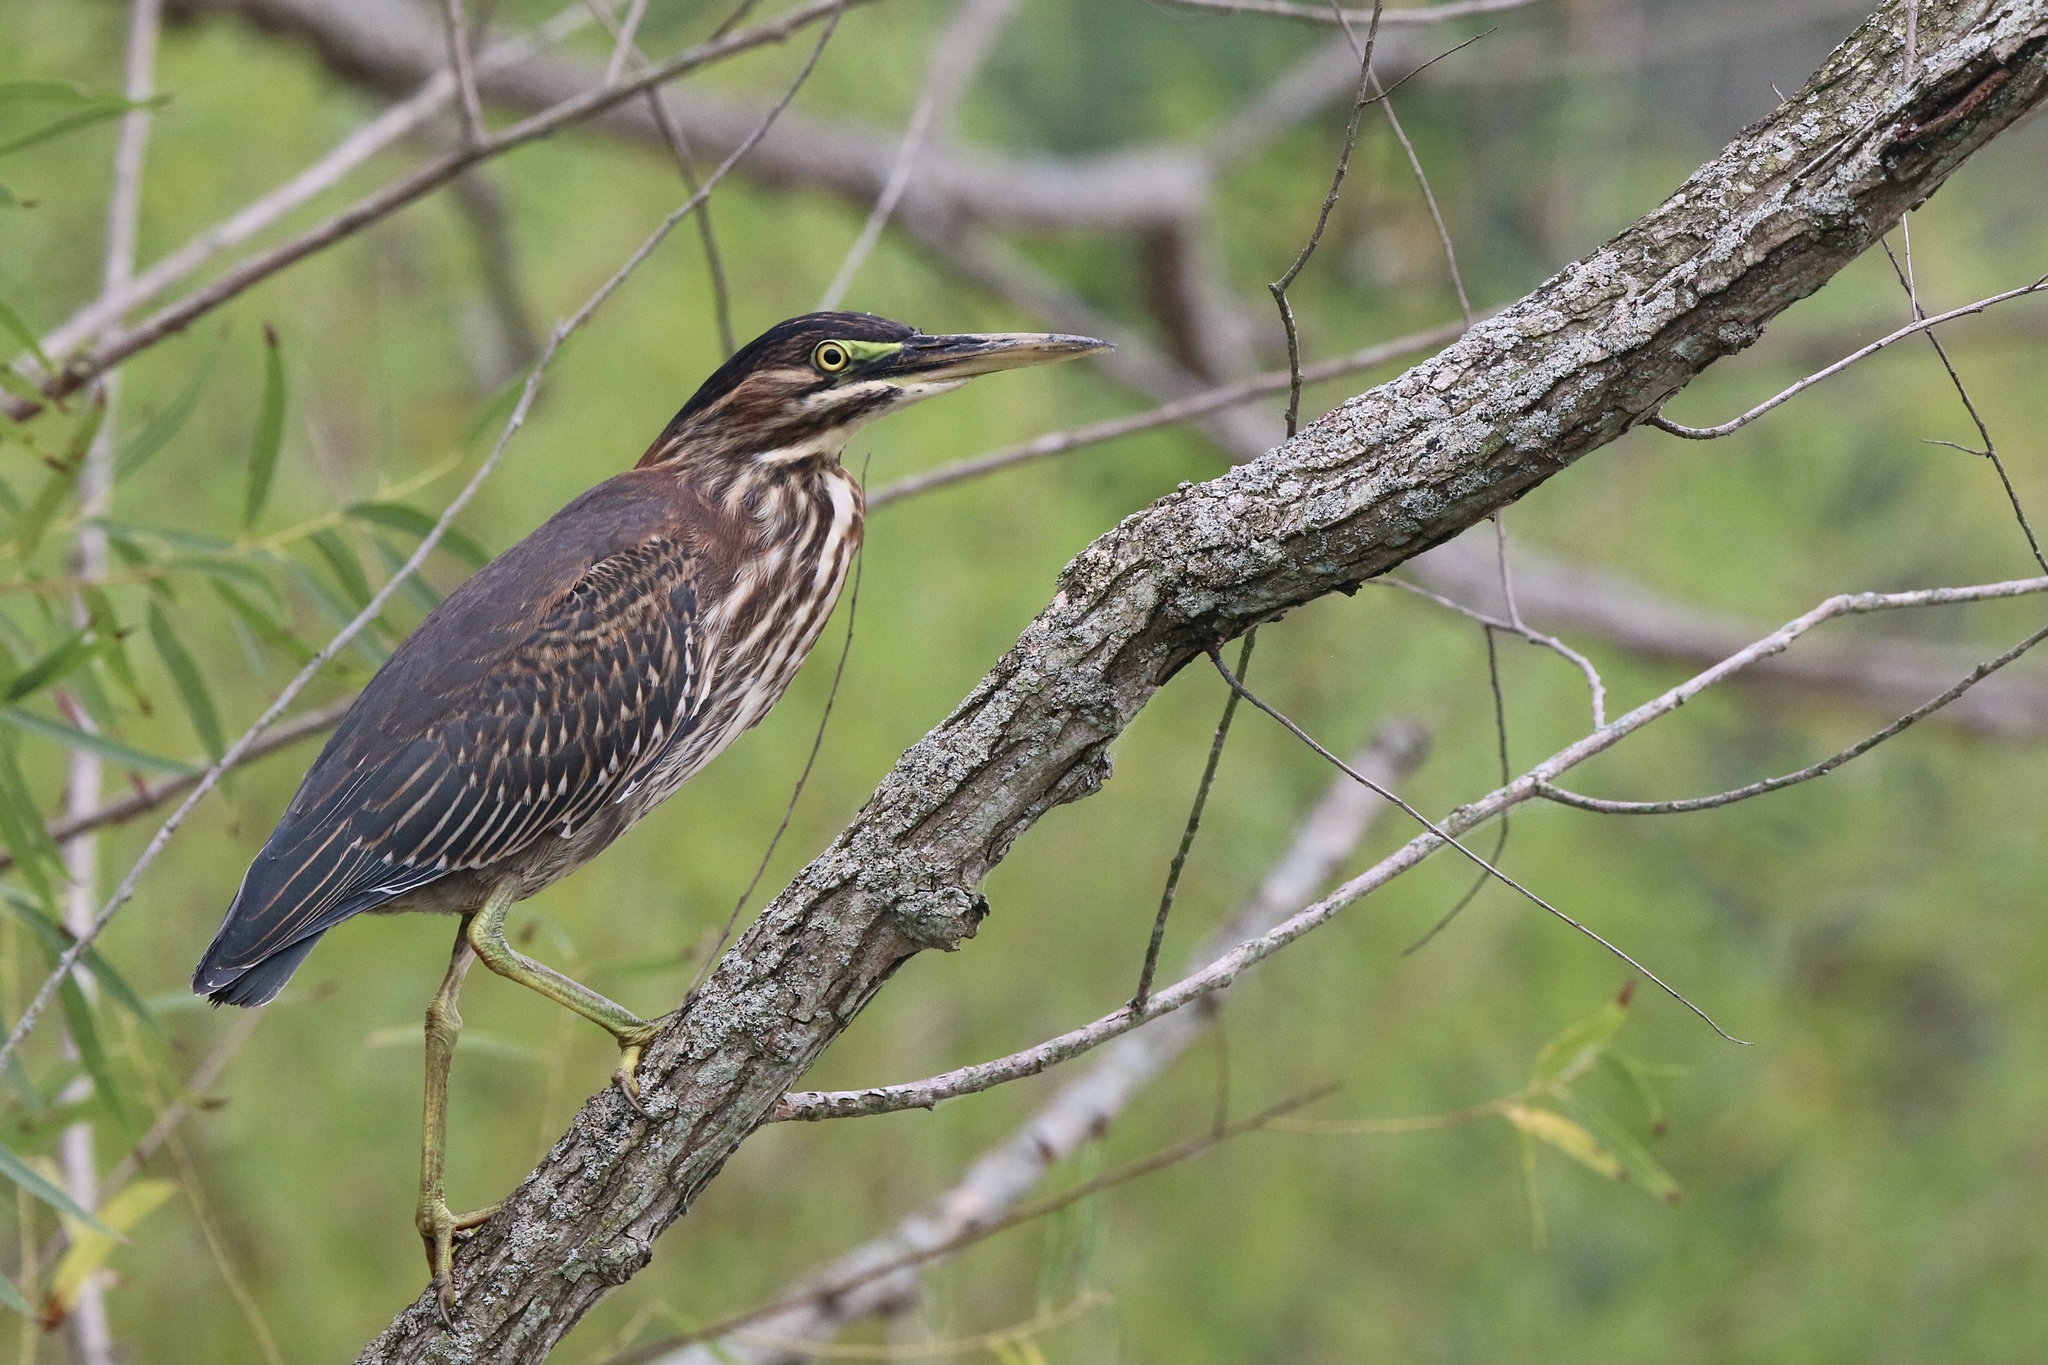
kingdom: Animalia
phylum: Chordata
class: Aves
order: Pelecaniformes
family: Ardeidae
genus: Butorides
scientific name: Butorides virescens
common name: Green heron
